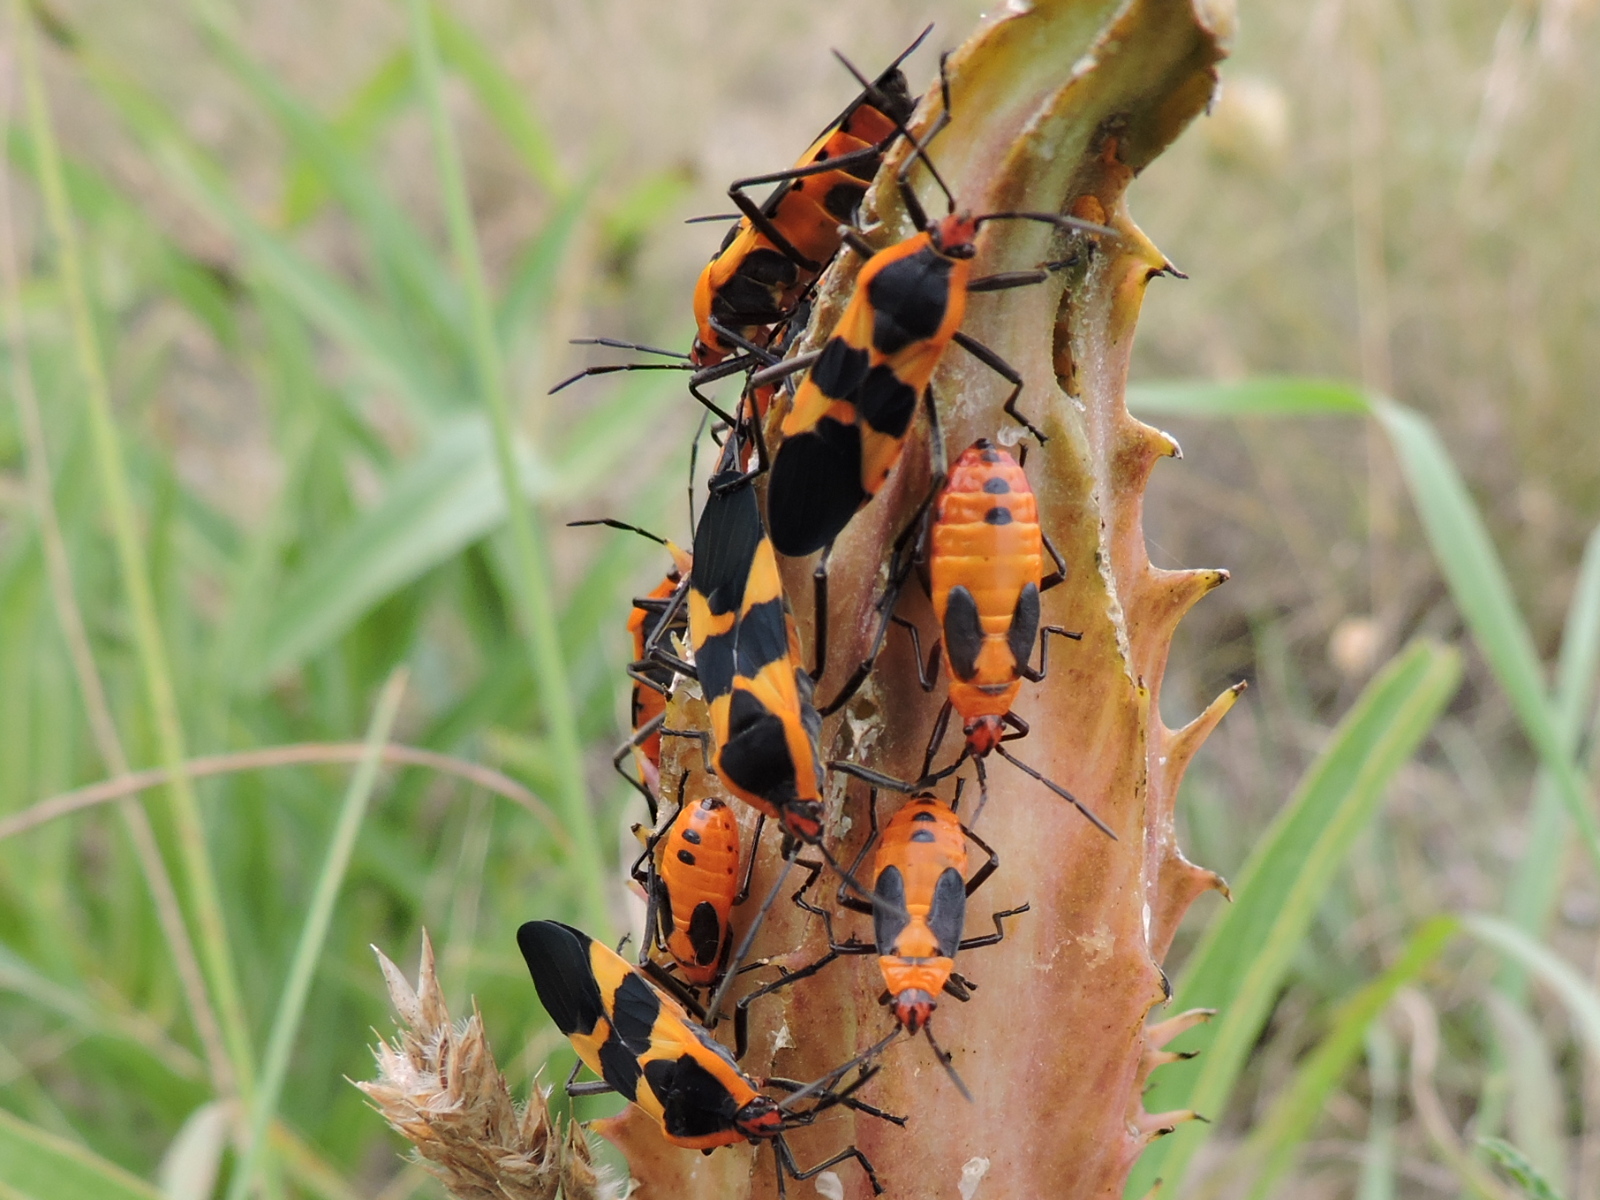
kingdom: Animalia
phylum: Arthropoda
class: Insecta
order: Hemiptera
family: Lygaeidae
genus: Oncopeltus
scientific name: Oncopeltus fasciatus
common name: Large milkweed bug
